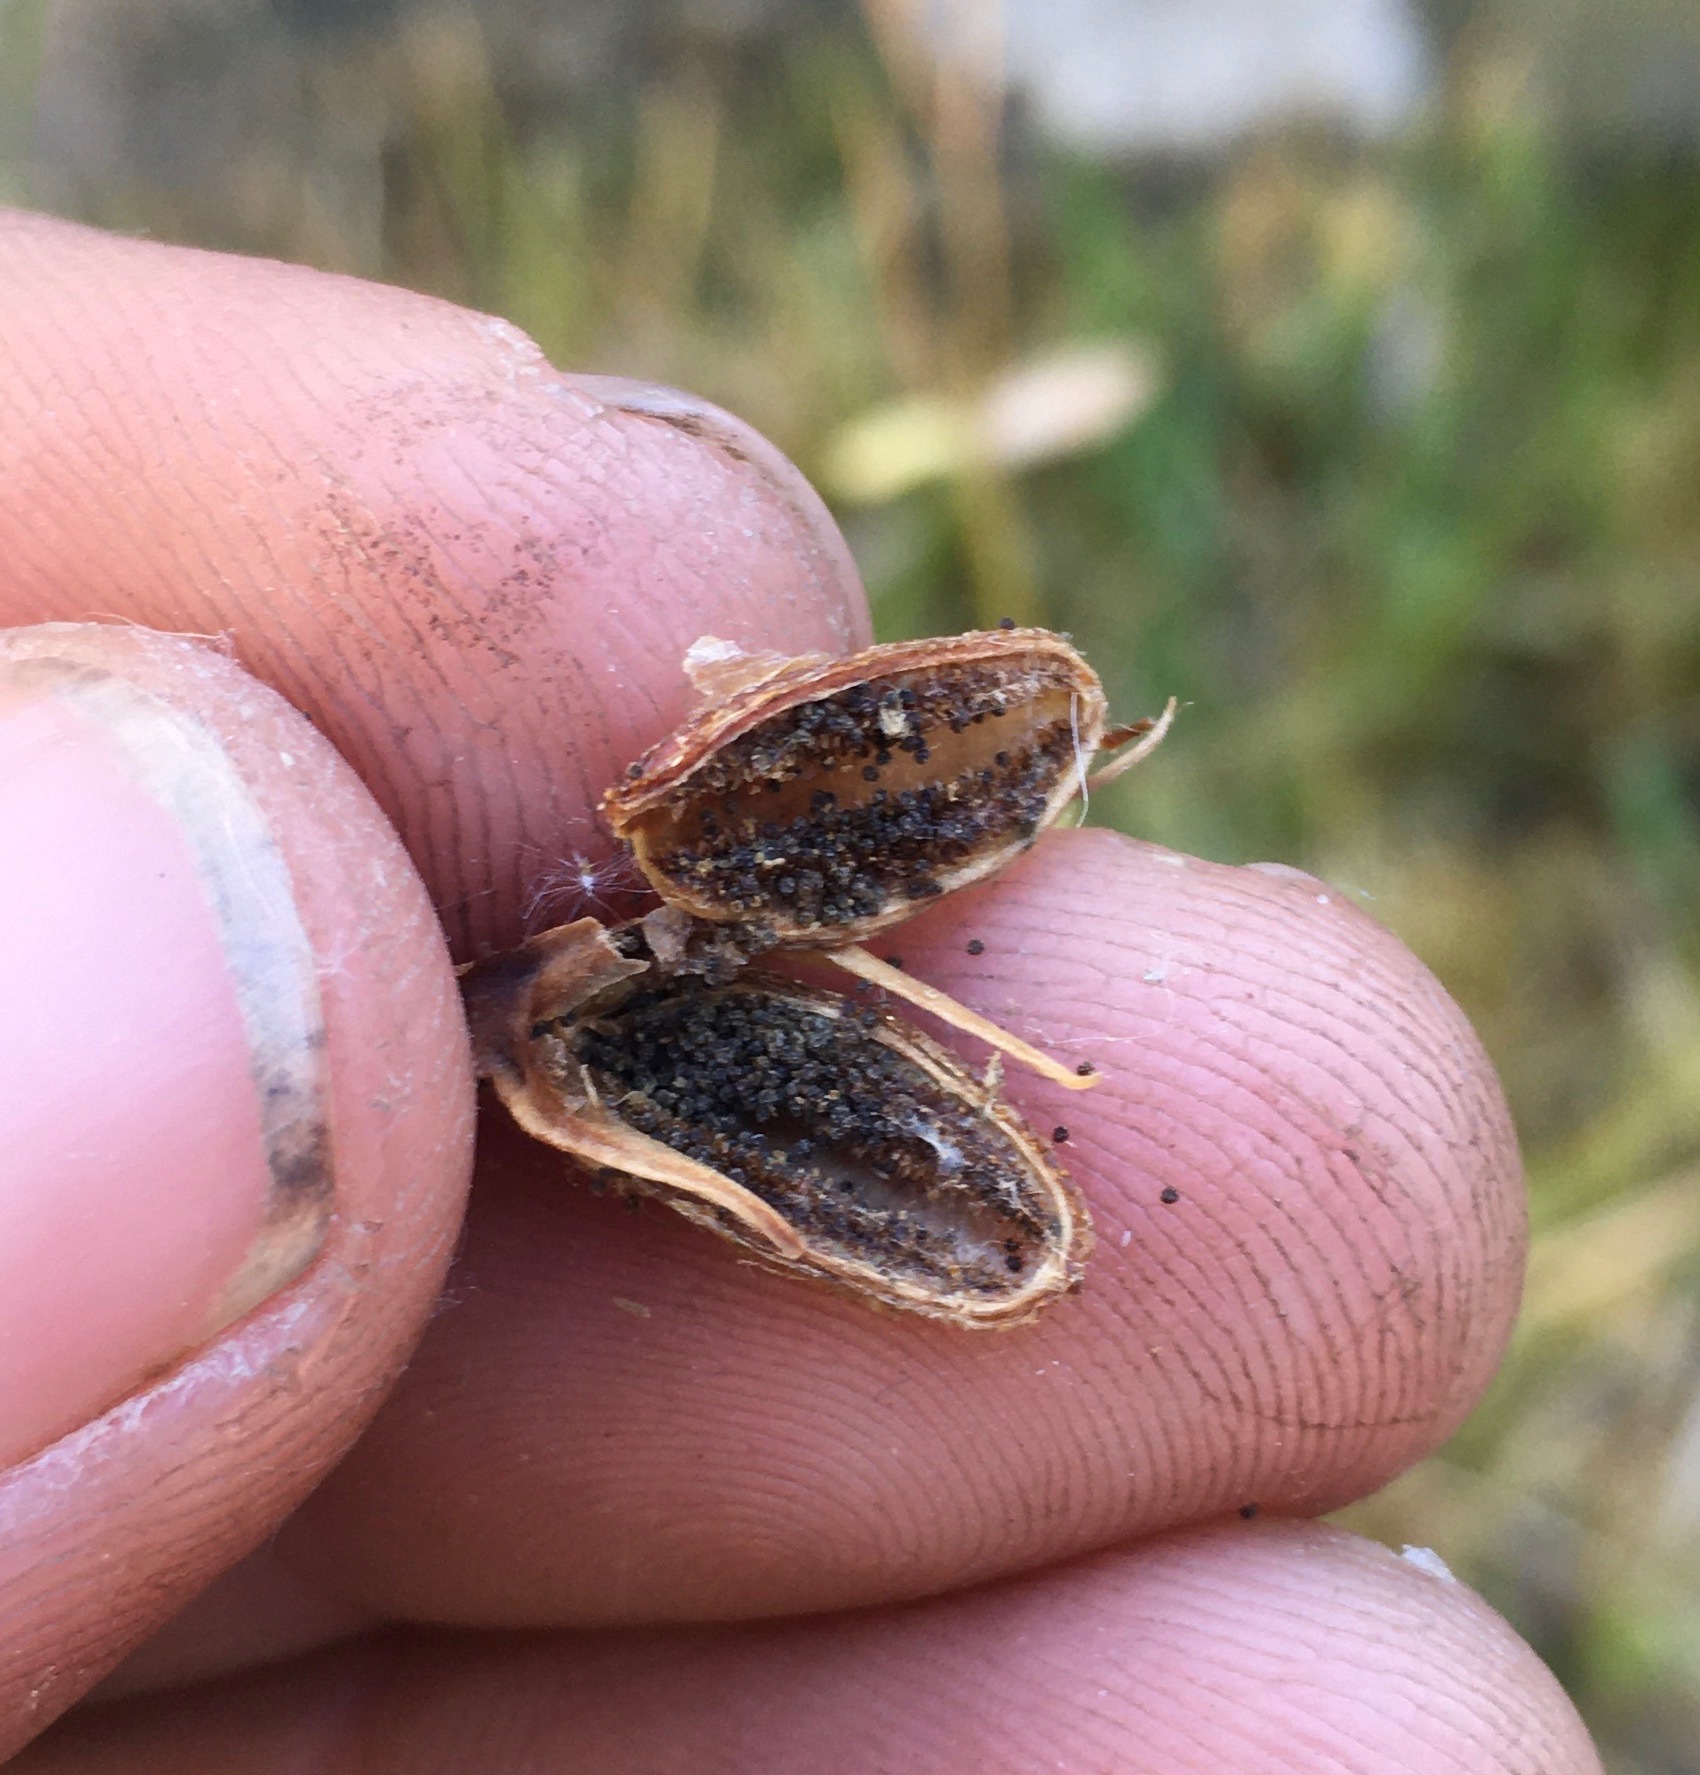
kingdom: Plantae
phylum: Tracheophyta
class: Magnoliopsida
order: Gentianales
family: Gentianaceae
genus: Eustoma
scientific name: Eustoma exaltatum
